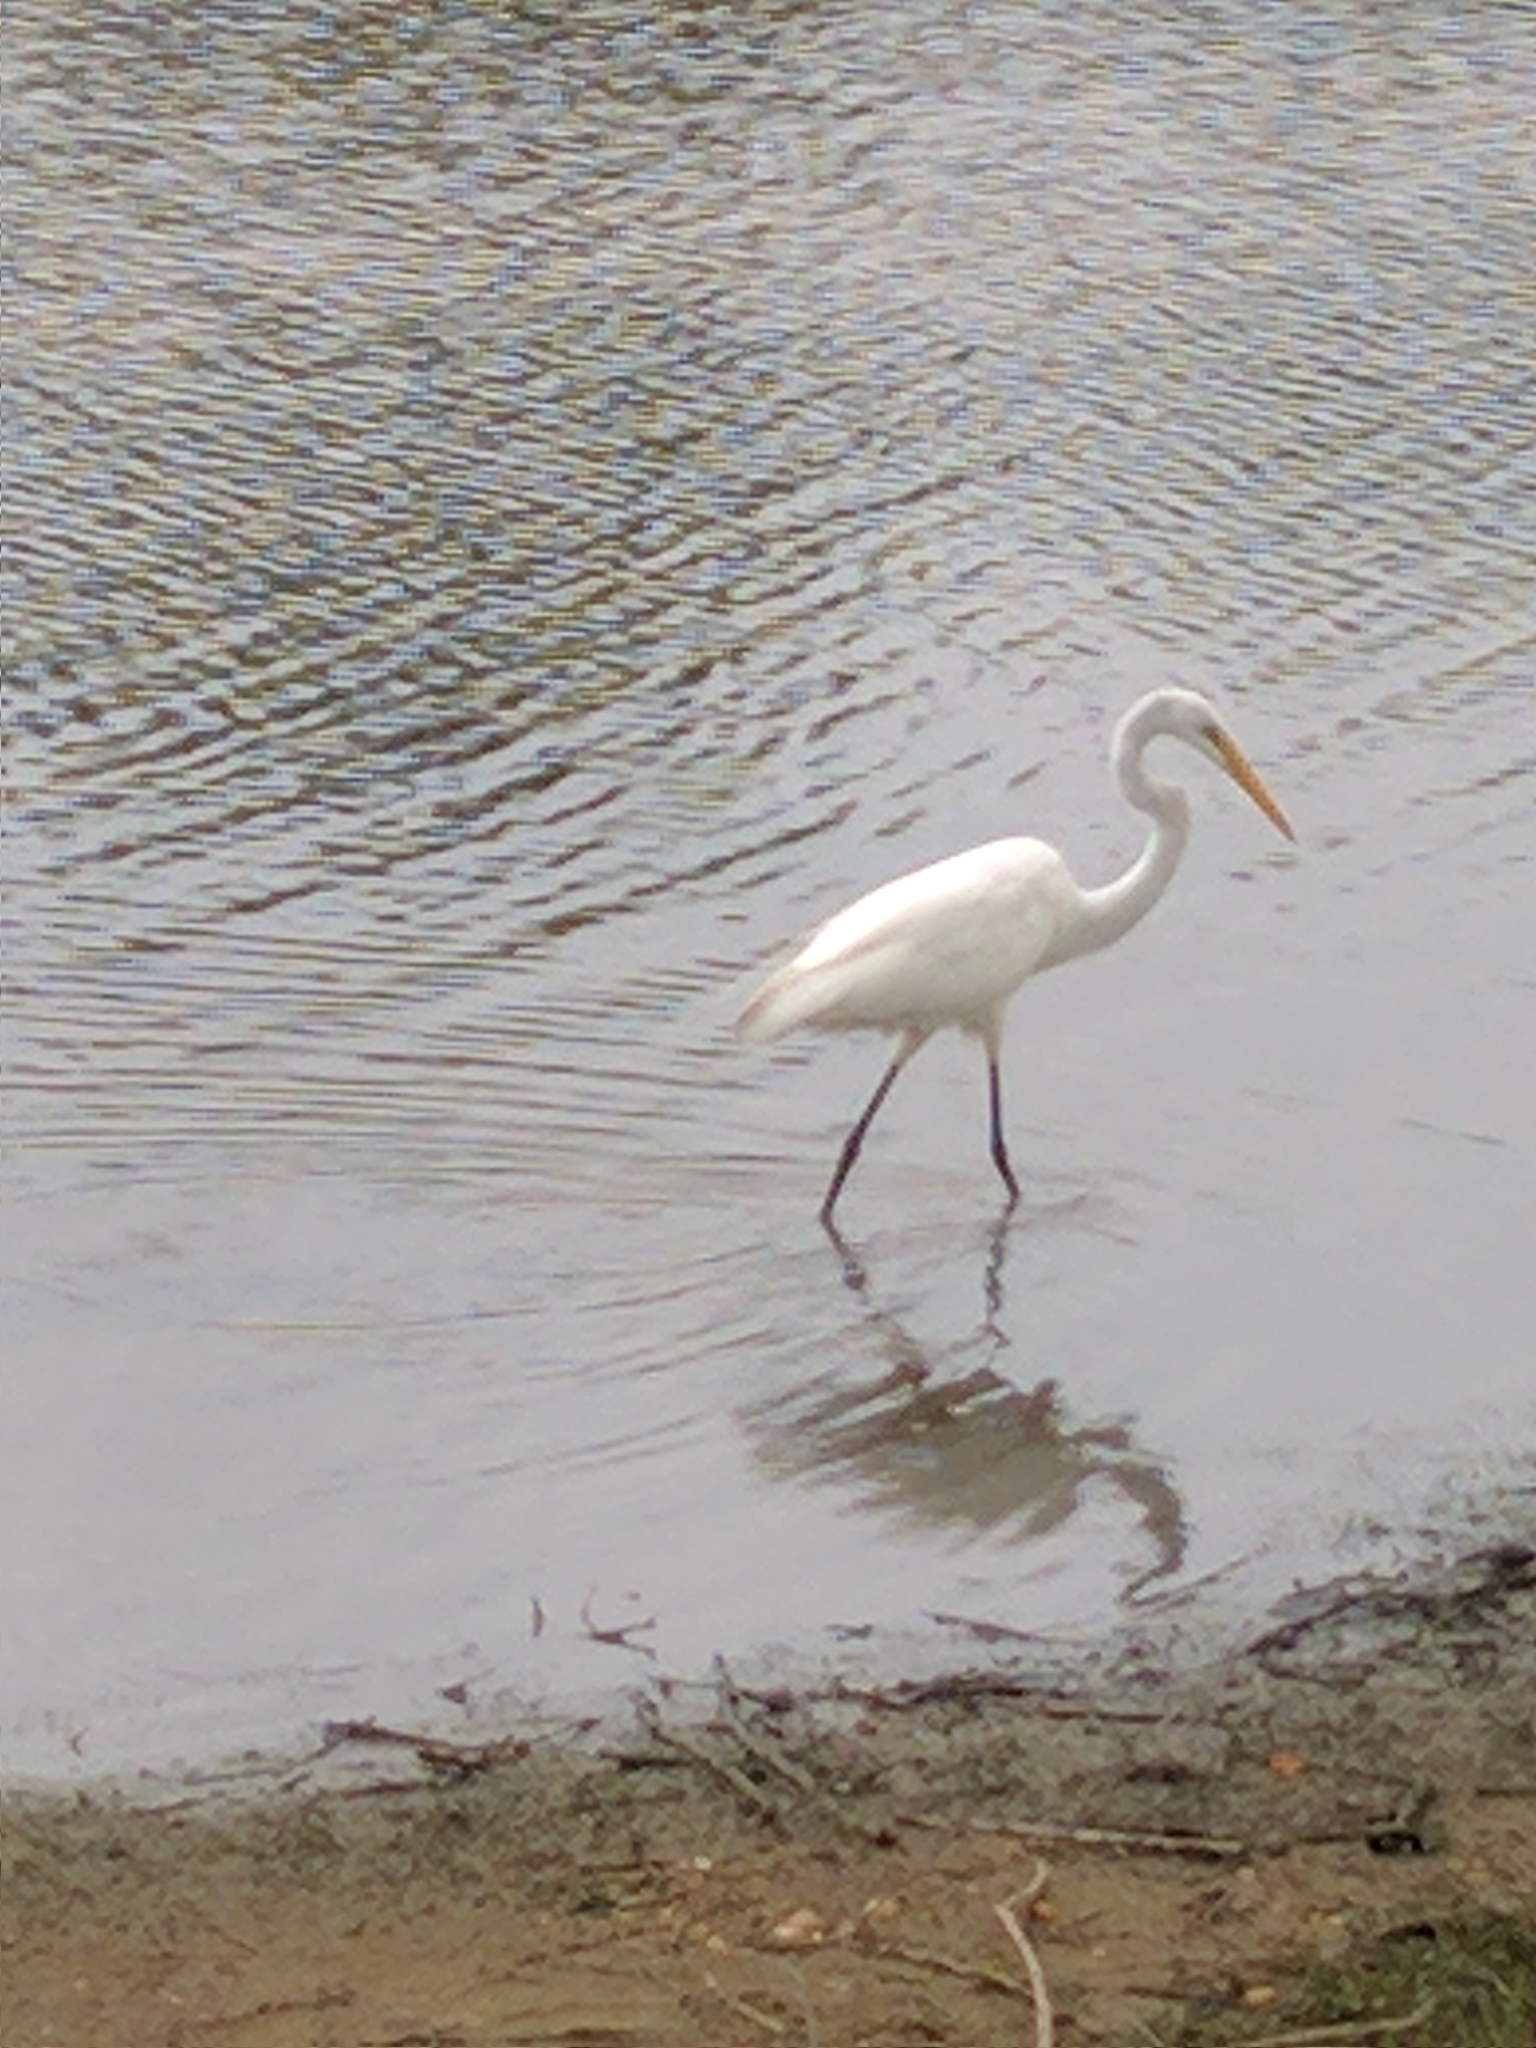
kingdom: Animalia
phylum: Chordata
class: Aves
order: Pelecaniformes
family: Ardeidae
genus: Ardea
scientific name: Ardea alba
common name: Great egret
